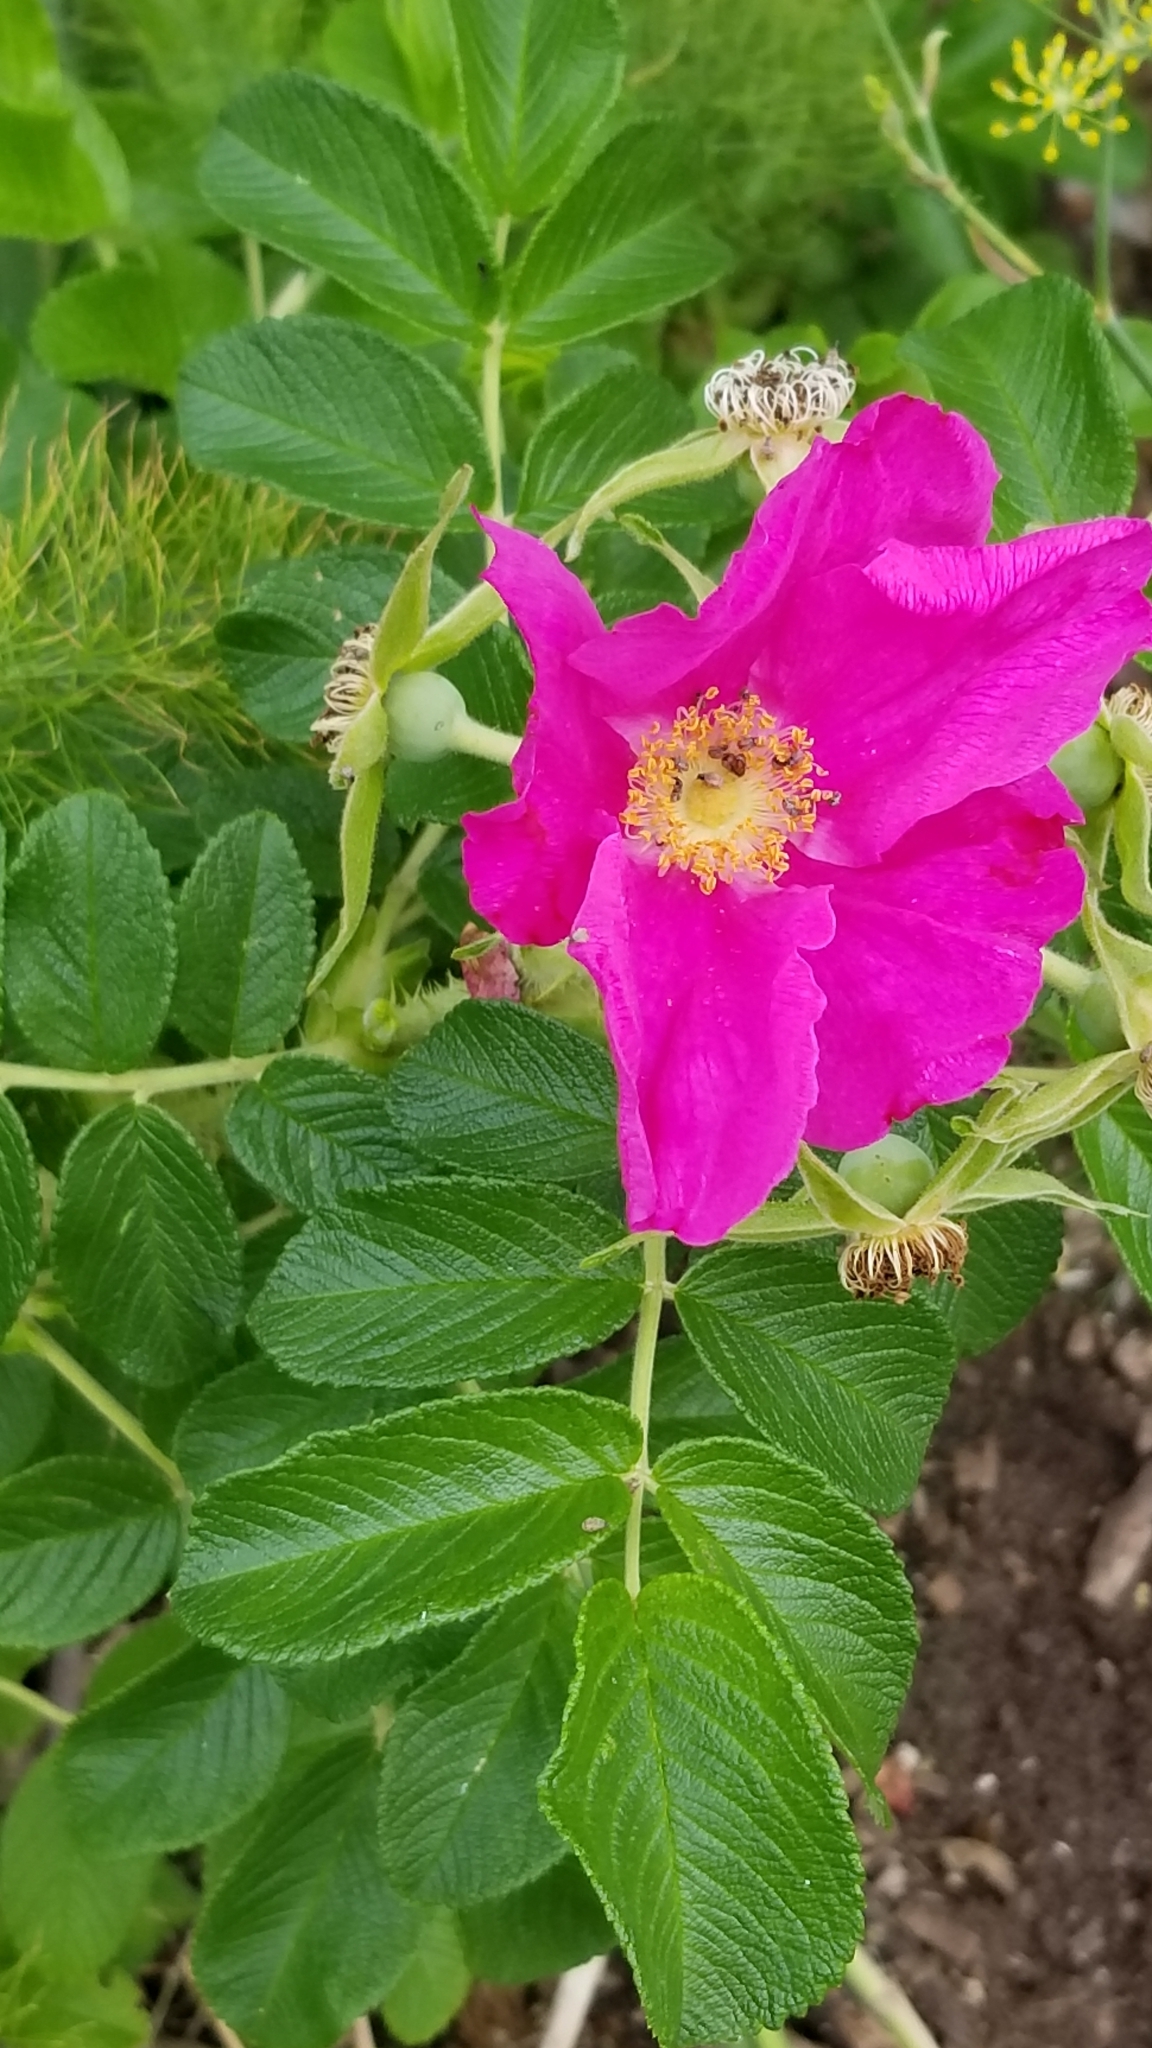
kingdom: Plantae
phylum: Tracheophyta
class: Magnoliopsida
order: Rosales
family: Rosaceae
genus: Rosa
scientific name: Rosa rugosa
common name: Japanese rose
